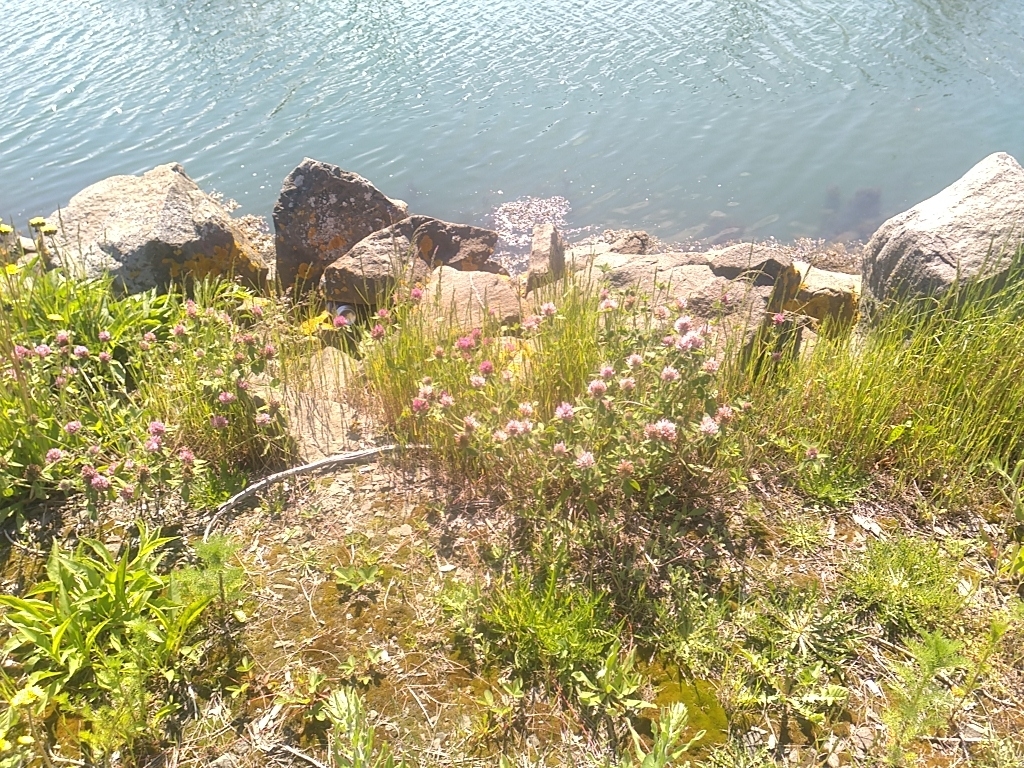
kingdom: Plantae
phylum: Tracheophyta
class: Magnoliopsida
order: Fabales
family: Fabaceae
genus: Trifolium
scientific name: Trifolium pratense
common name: Red clover
